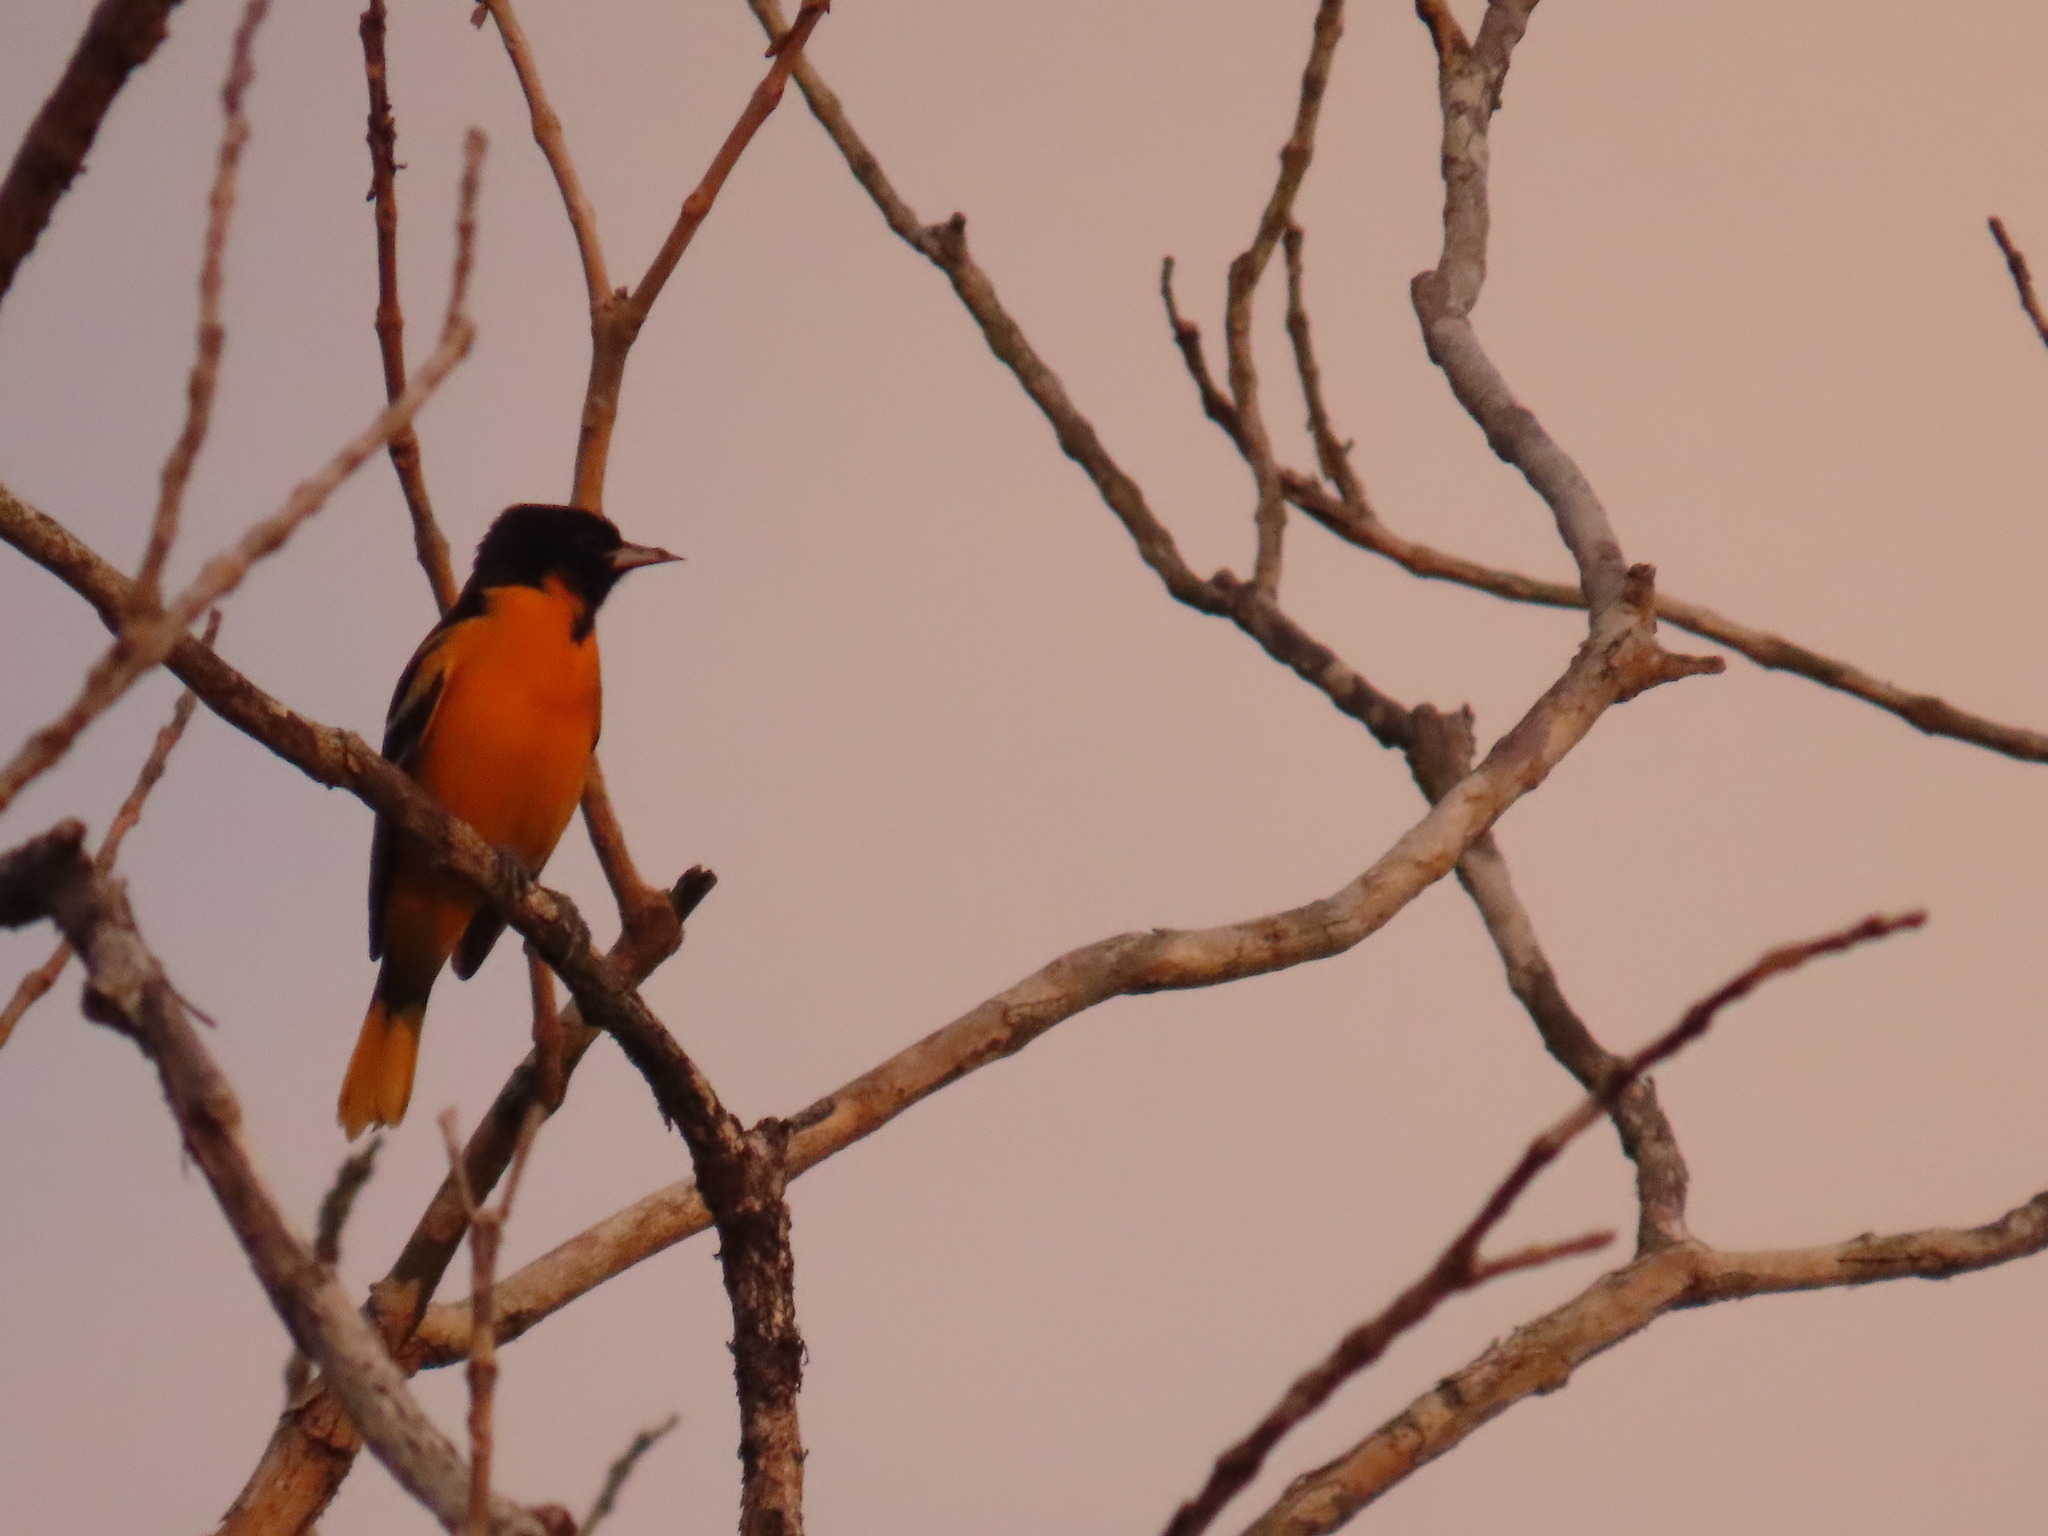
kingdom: Animalia
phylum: Chordata
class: Aves
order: Passeriformes
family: Icteridae
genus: Icterus
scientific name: Icterus galbula
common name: Baltimore oriole
